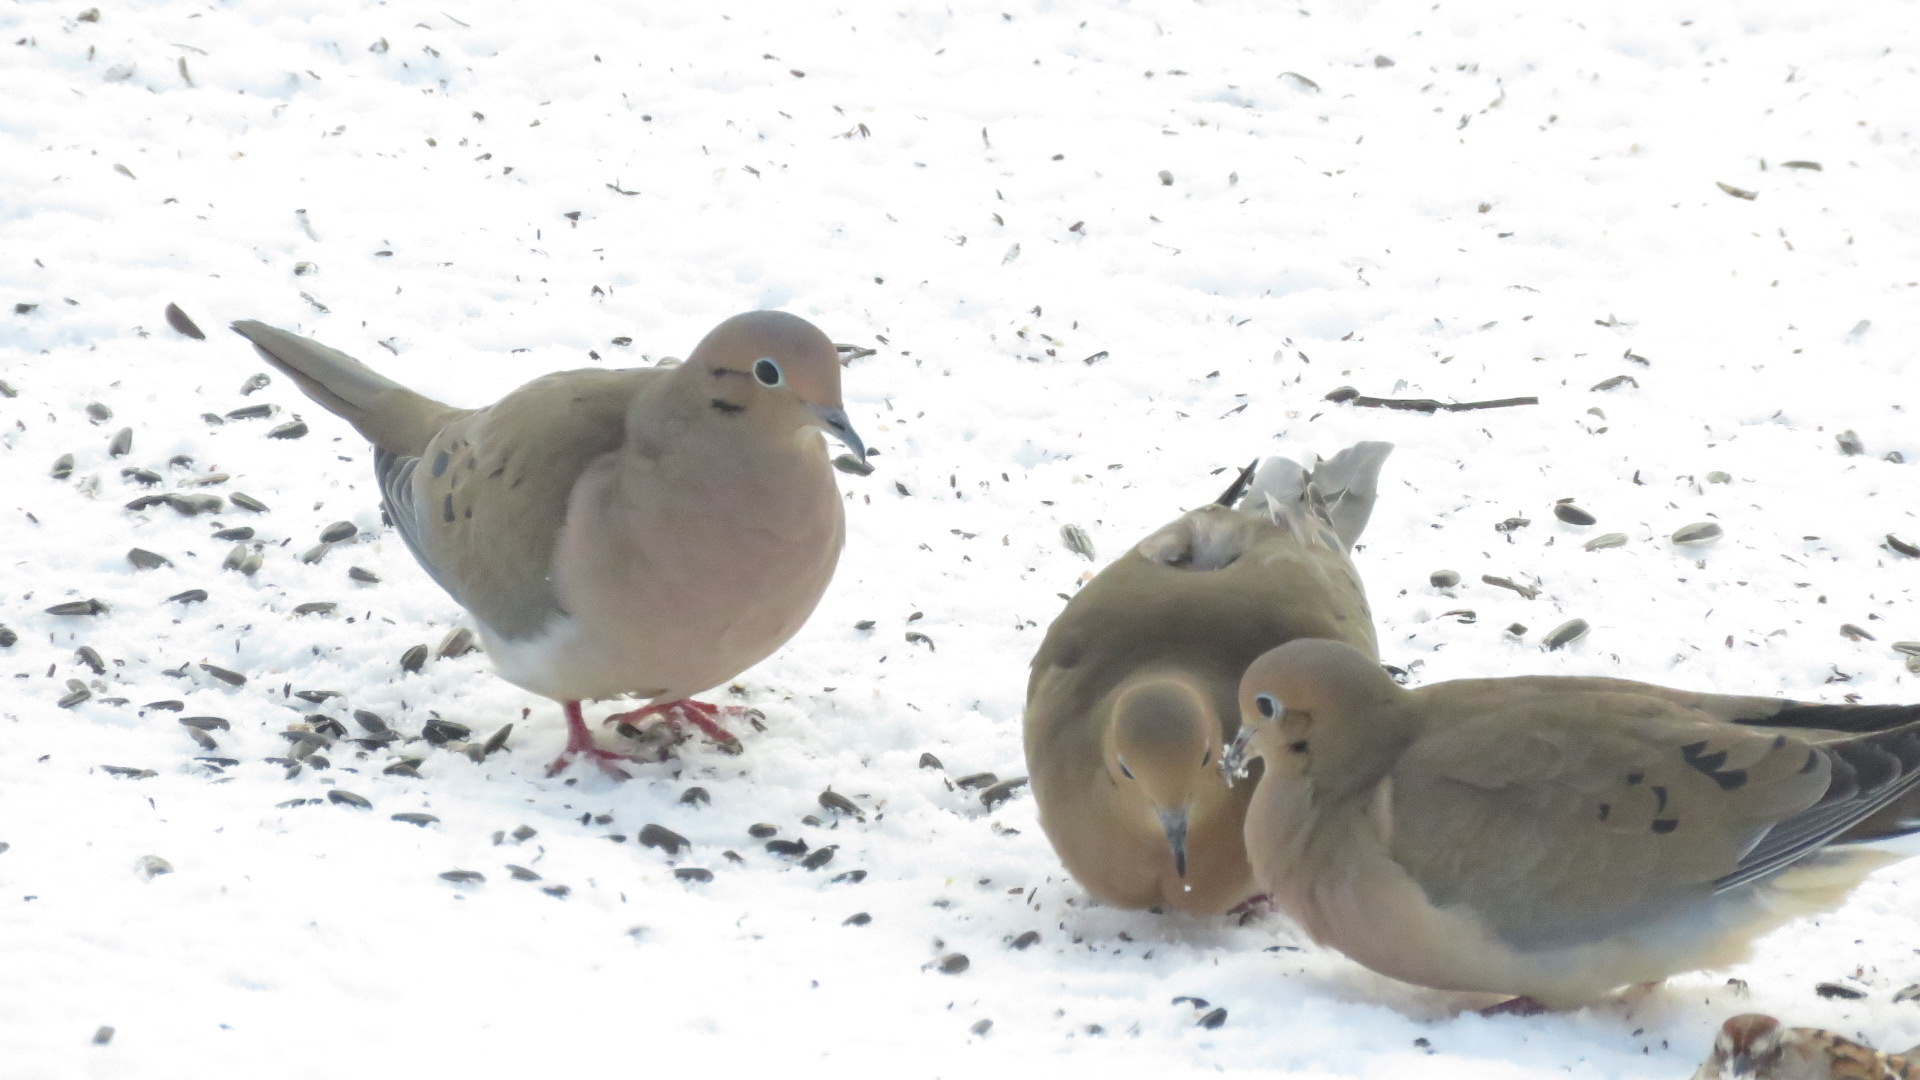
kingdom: Animalia
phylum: Chordata
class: Aves
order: Columbiformes
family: Columbidae
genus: Zenaida
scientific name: Zenaida macroura
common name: Mourning dove
